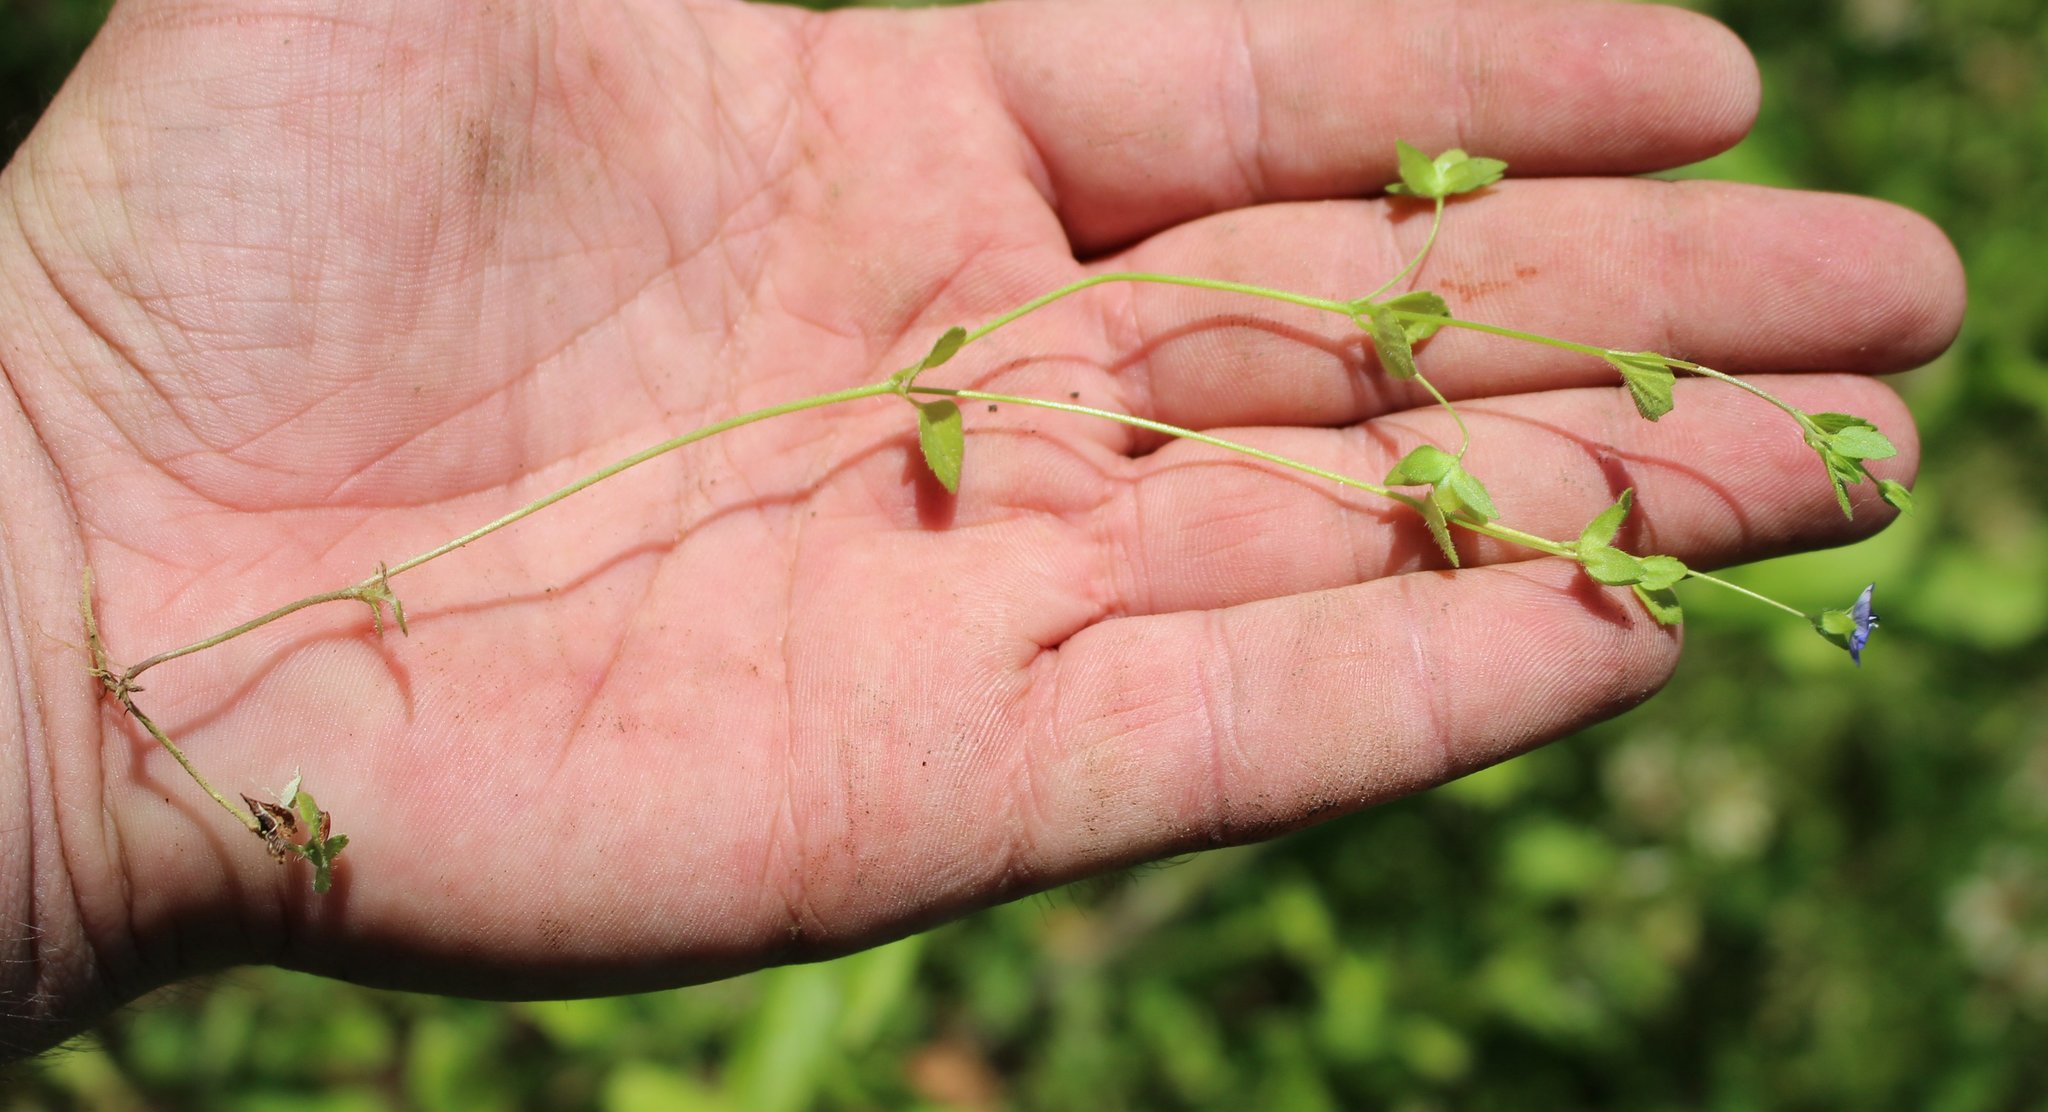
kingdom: Plantae
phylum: Tracheophyta
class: Magnoliopsida
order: Lamiales
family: Plantaginaceae
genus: Veronica
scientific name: Veronica persica
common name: Common field-speedwell
